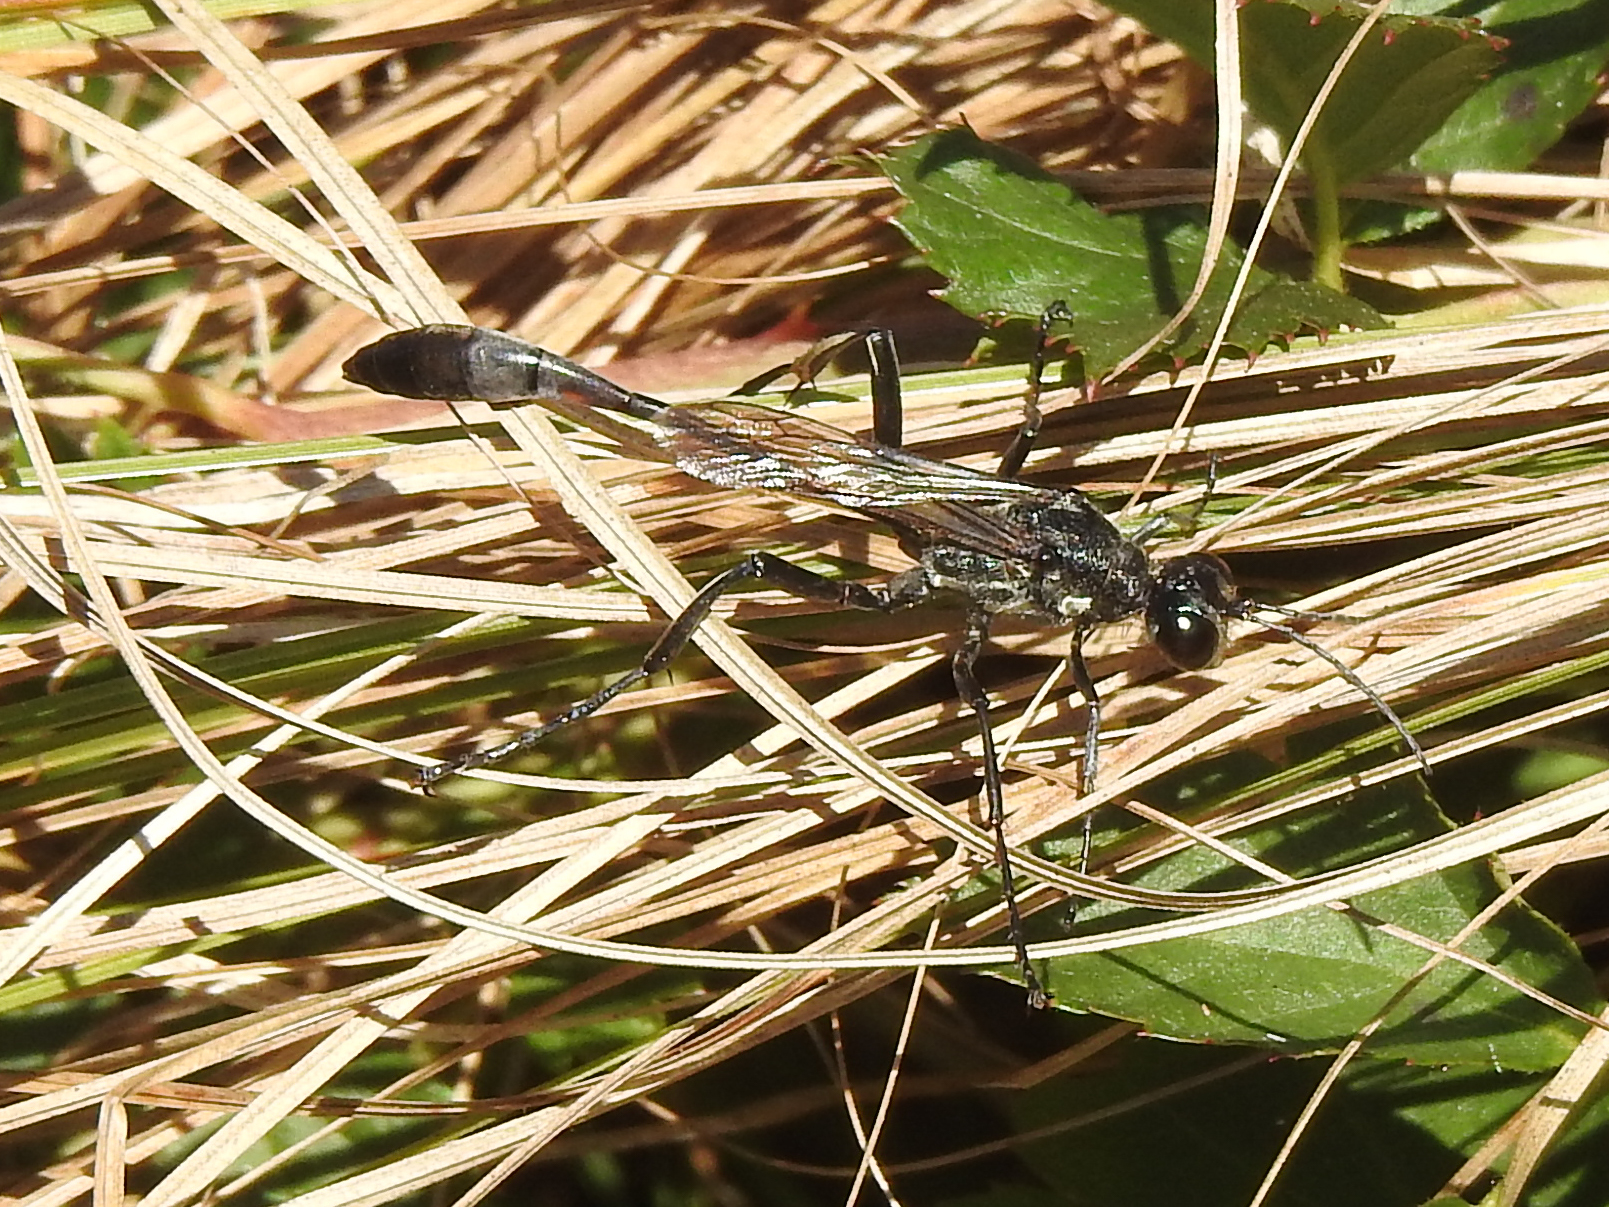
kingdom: Animalia
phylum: Arthropoda
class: Insecta
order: Hymenoptera
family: Sphecidae
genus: Eremnophila
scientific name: Eremnophila aureonotata
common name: Gold-marked thread-waisted wasp
